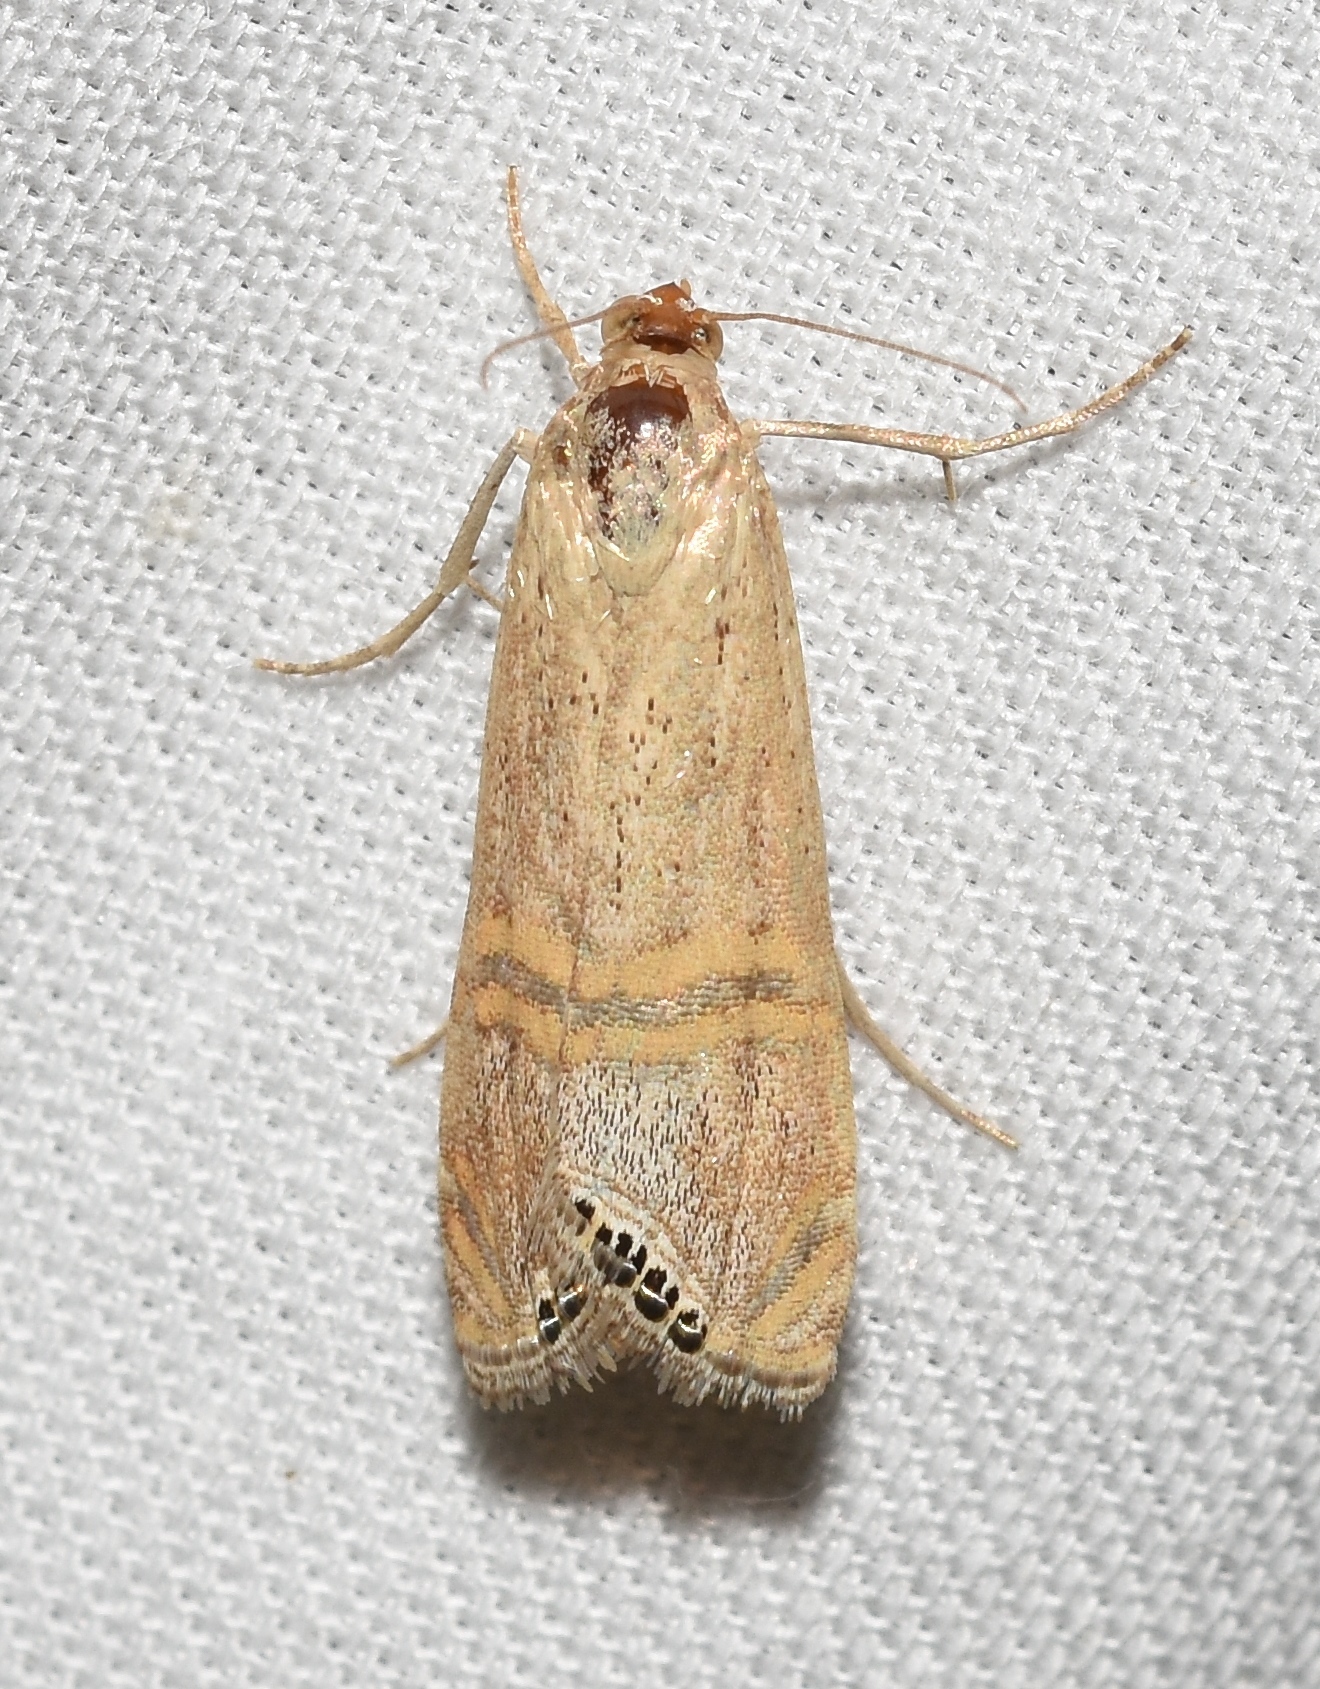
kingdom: Animalia
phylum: Arthropoda
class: Insecta
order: Lepidoptera
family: Crambidae
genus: Euchromius
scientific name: Euchromius ocellea
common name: Necklace veneer moth
